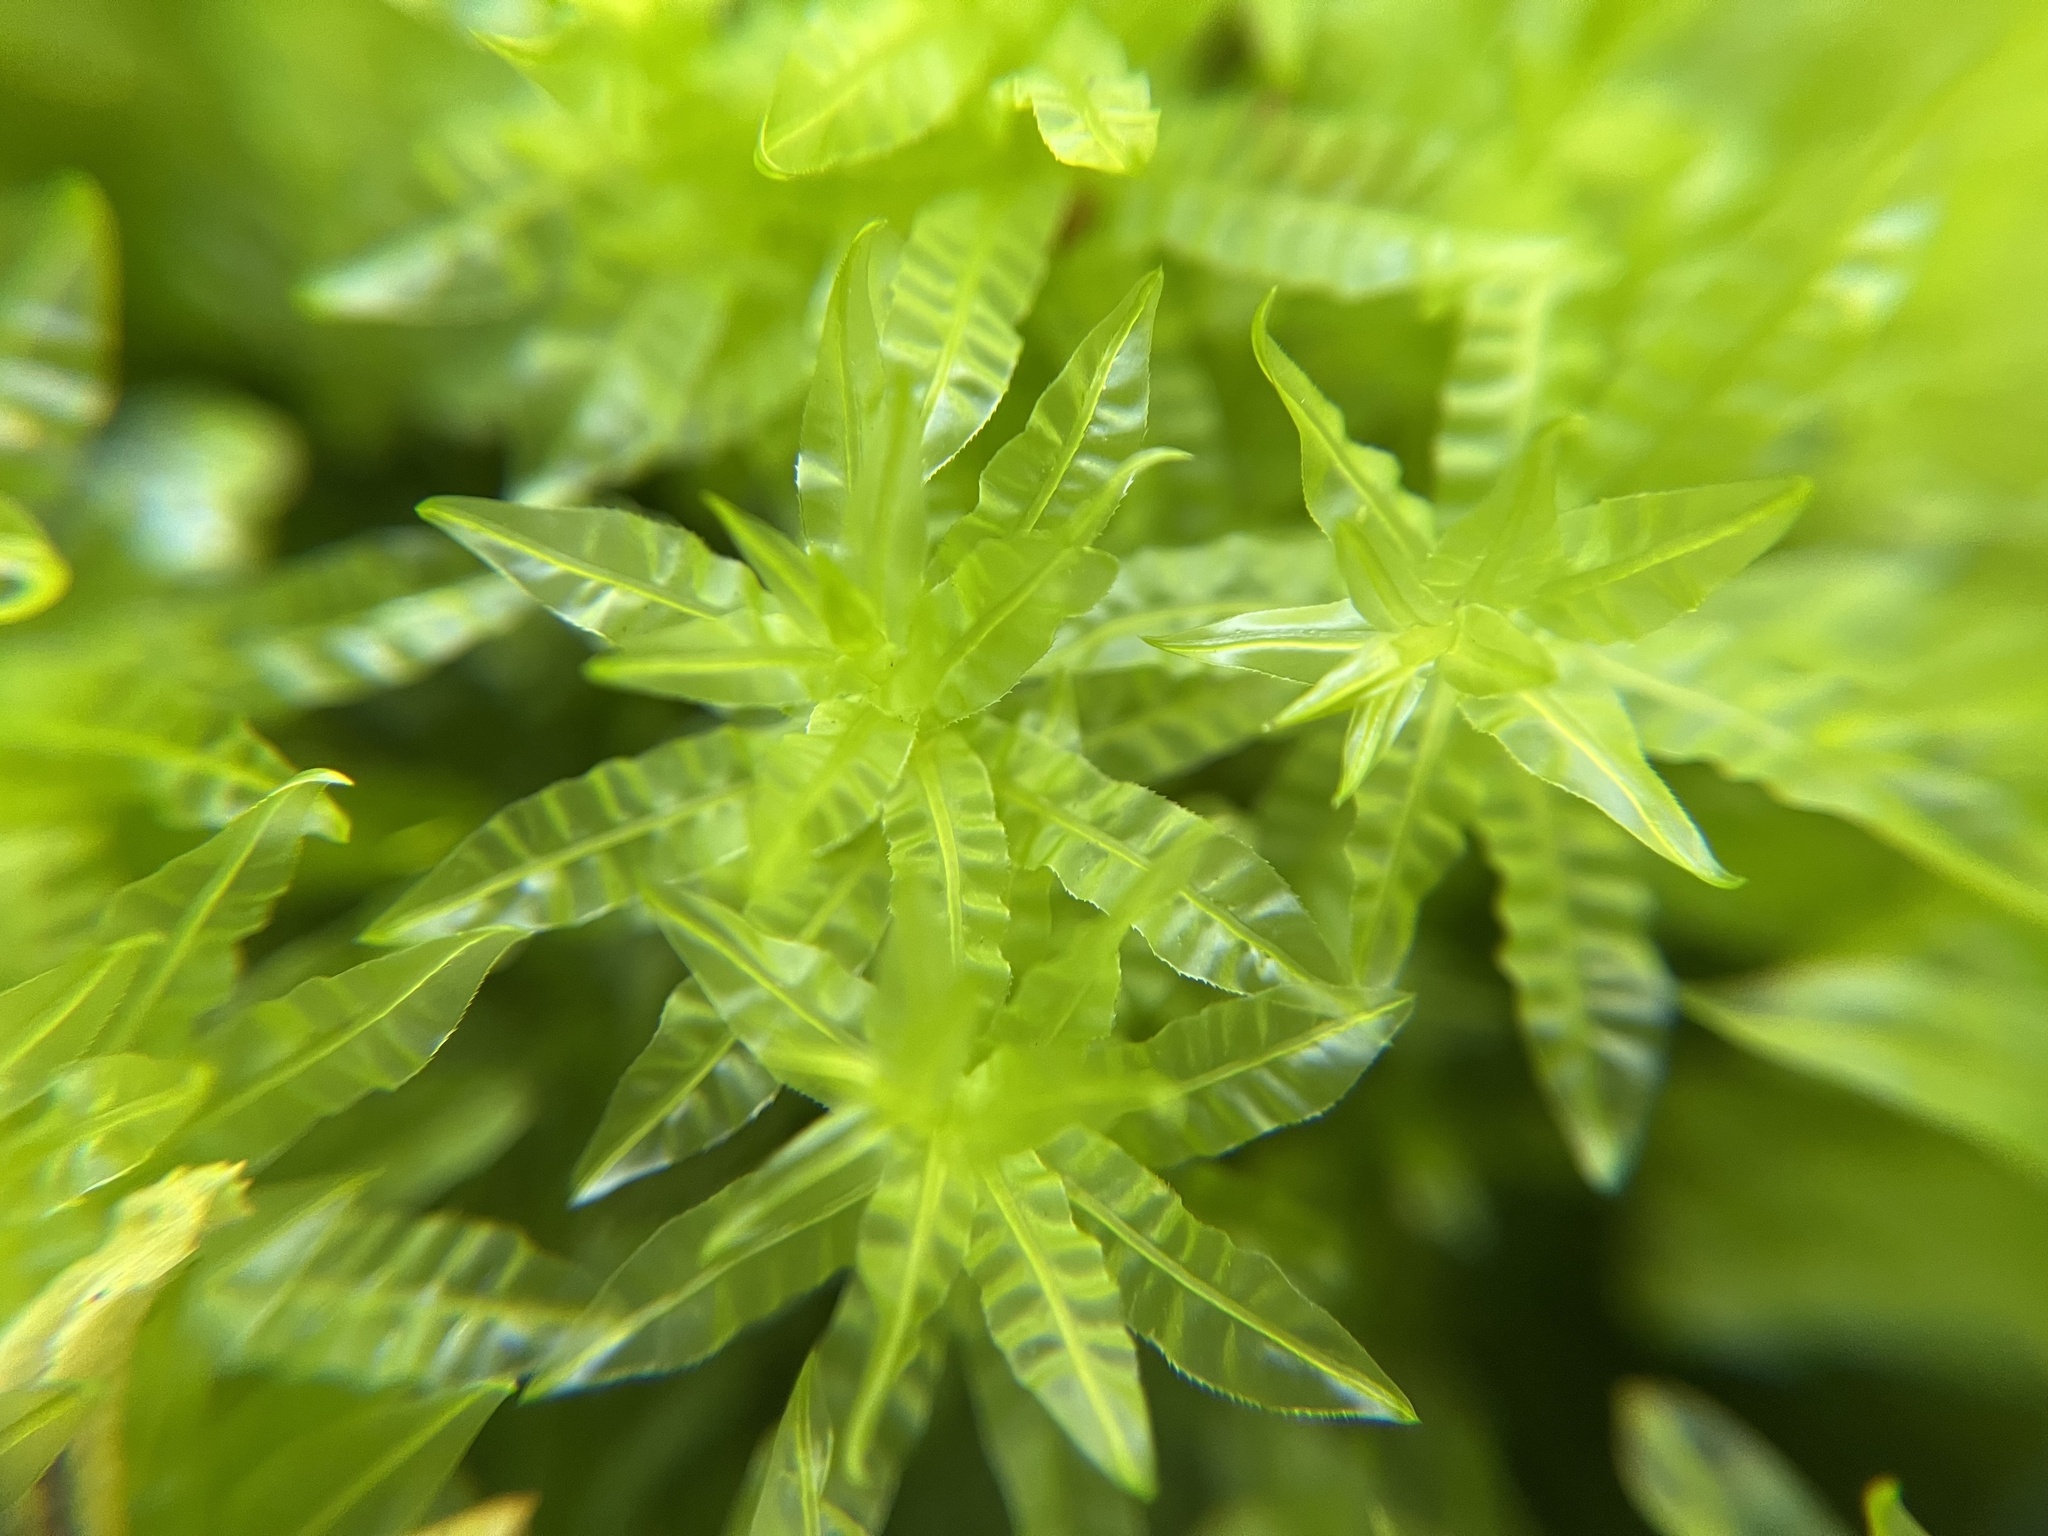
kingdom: Plantae
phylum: Bryophyta
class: Bryopsida
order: Bryales
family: Mniaceae
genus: Plagiomnium
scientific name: Plagiomnium undulatum
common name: Hart's-tongue thyme-moss
